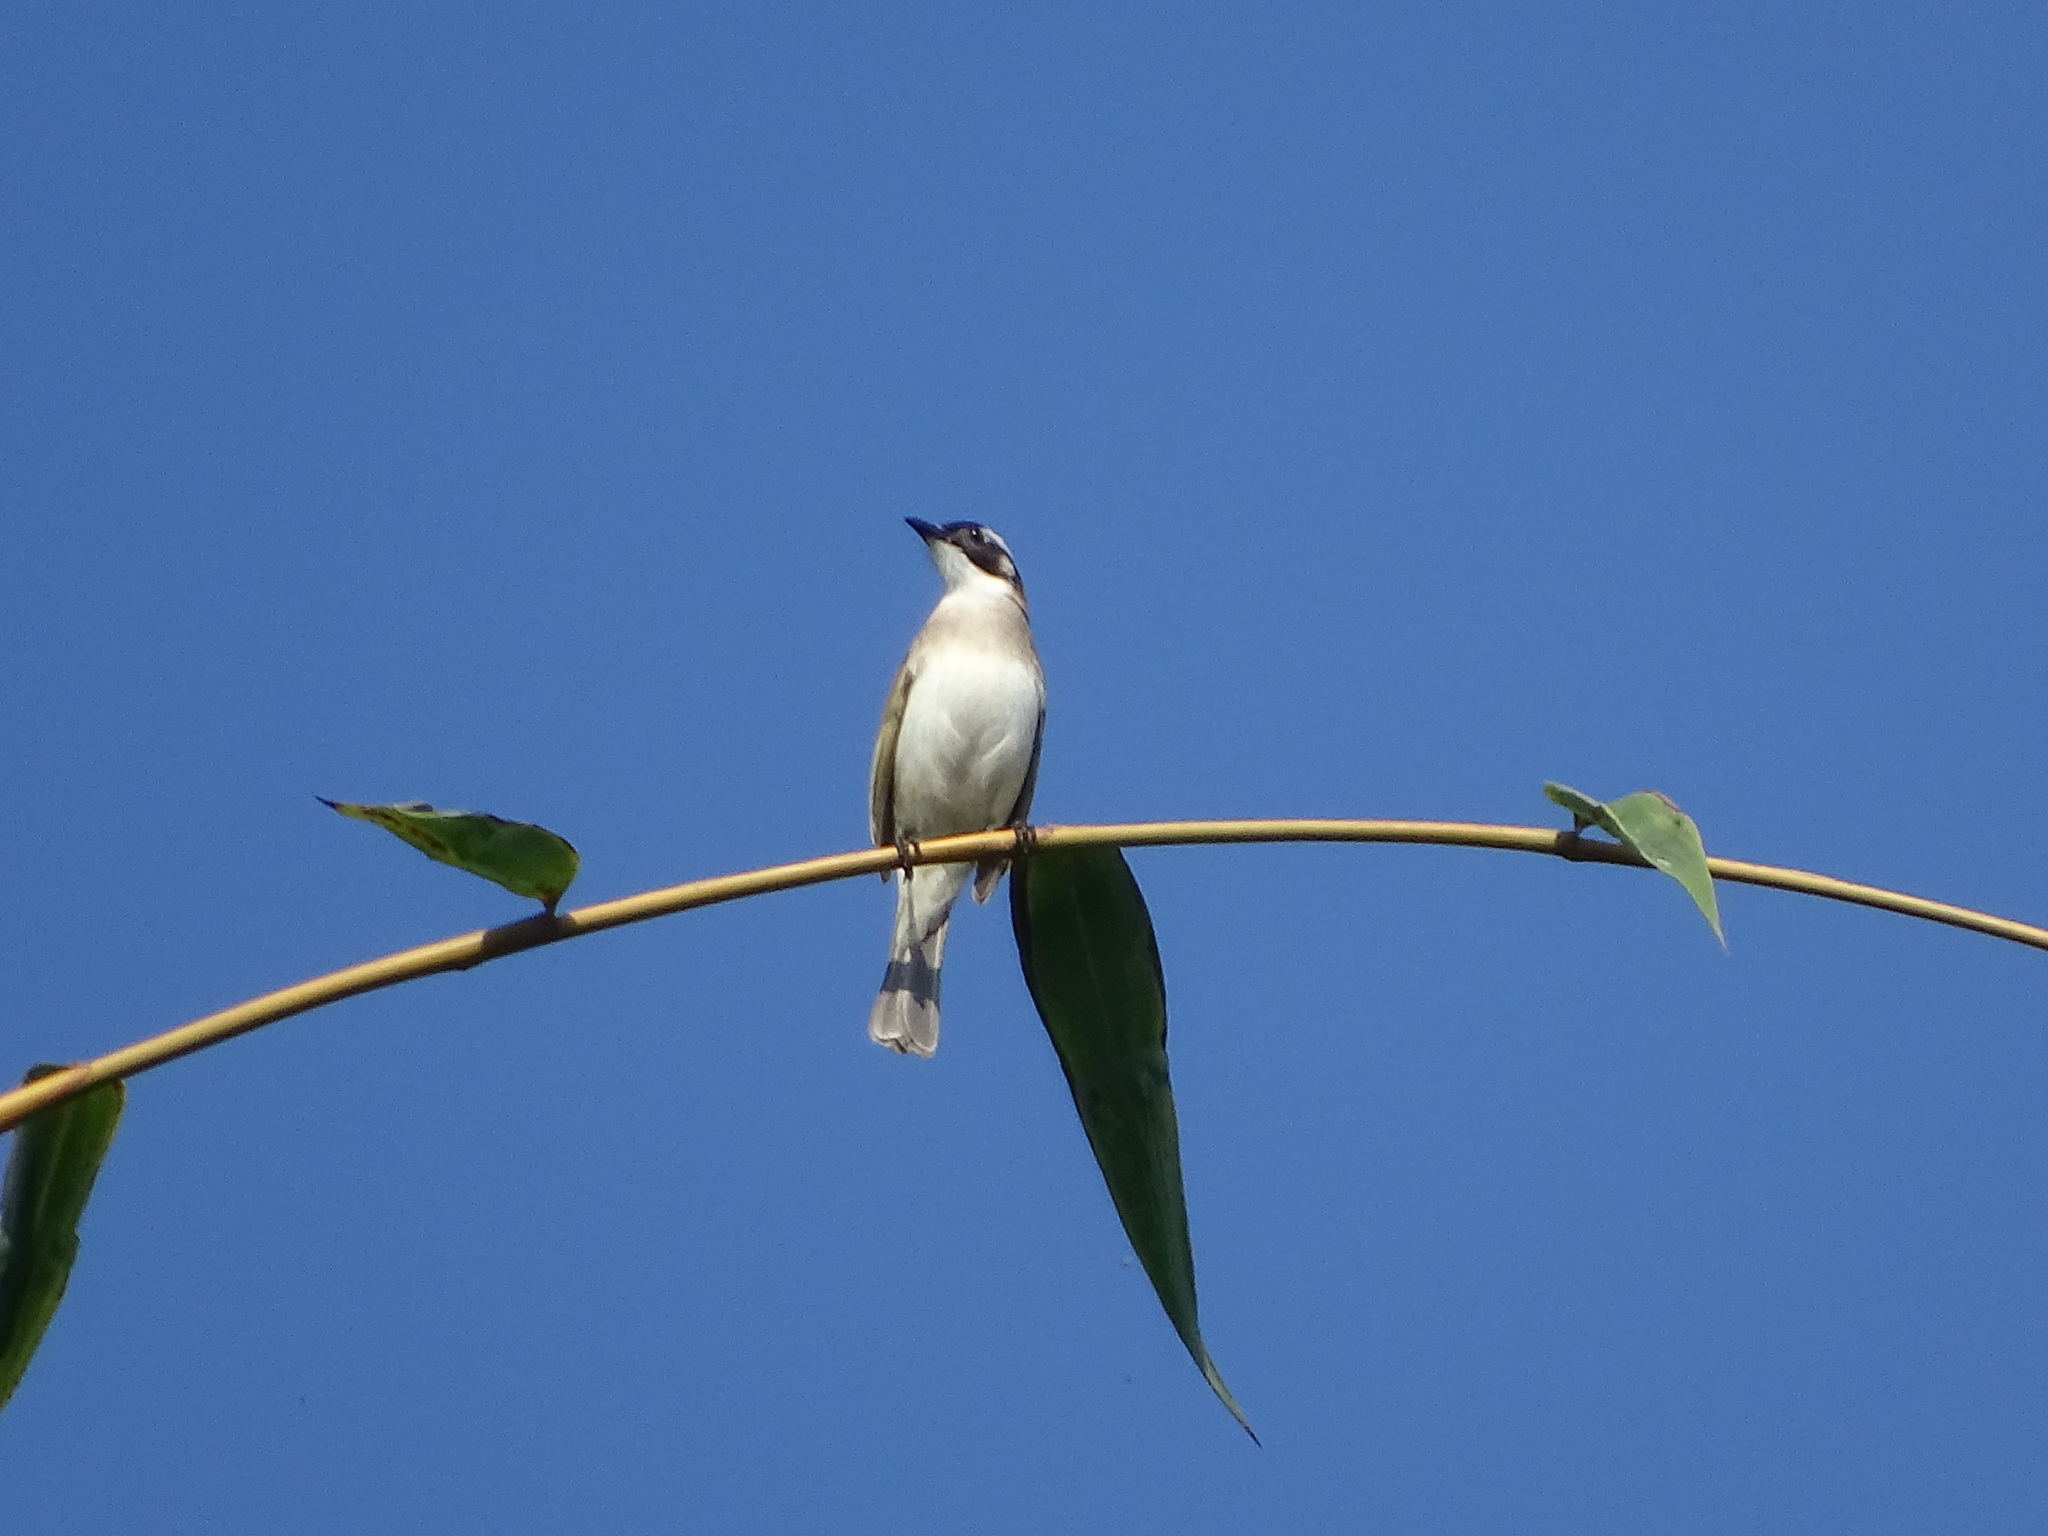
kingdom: Animalia
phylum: Chordata
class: Aves
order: Passeriformes
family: Pycnonotidae
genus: Pycnonotus
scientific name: Pycnonotus sinensis
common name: Light-vented bulbul
